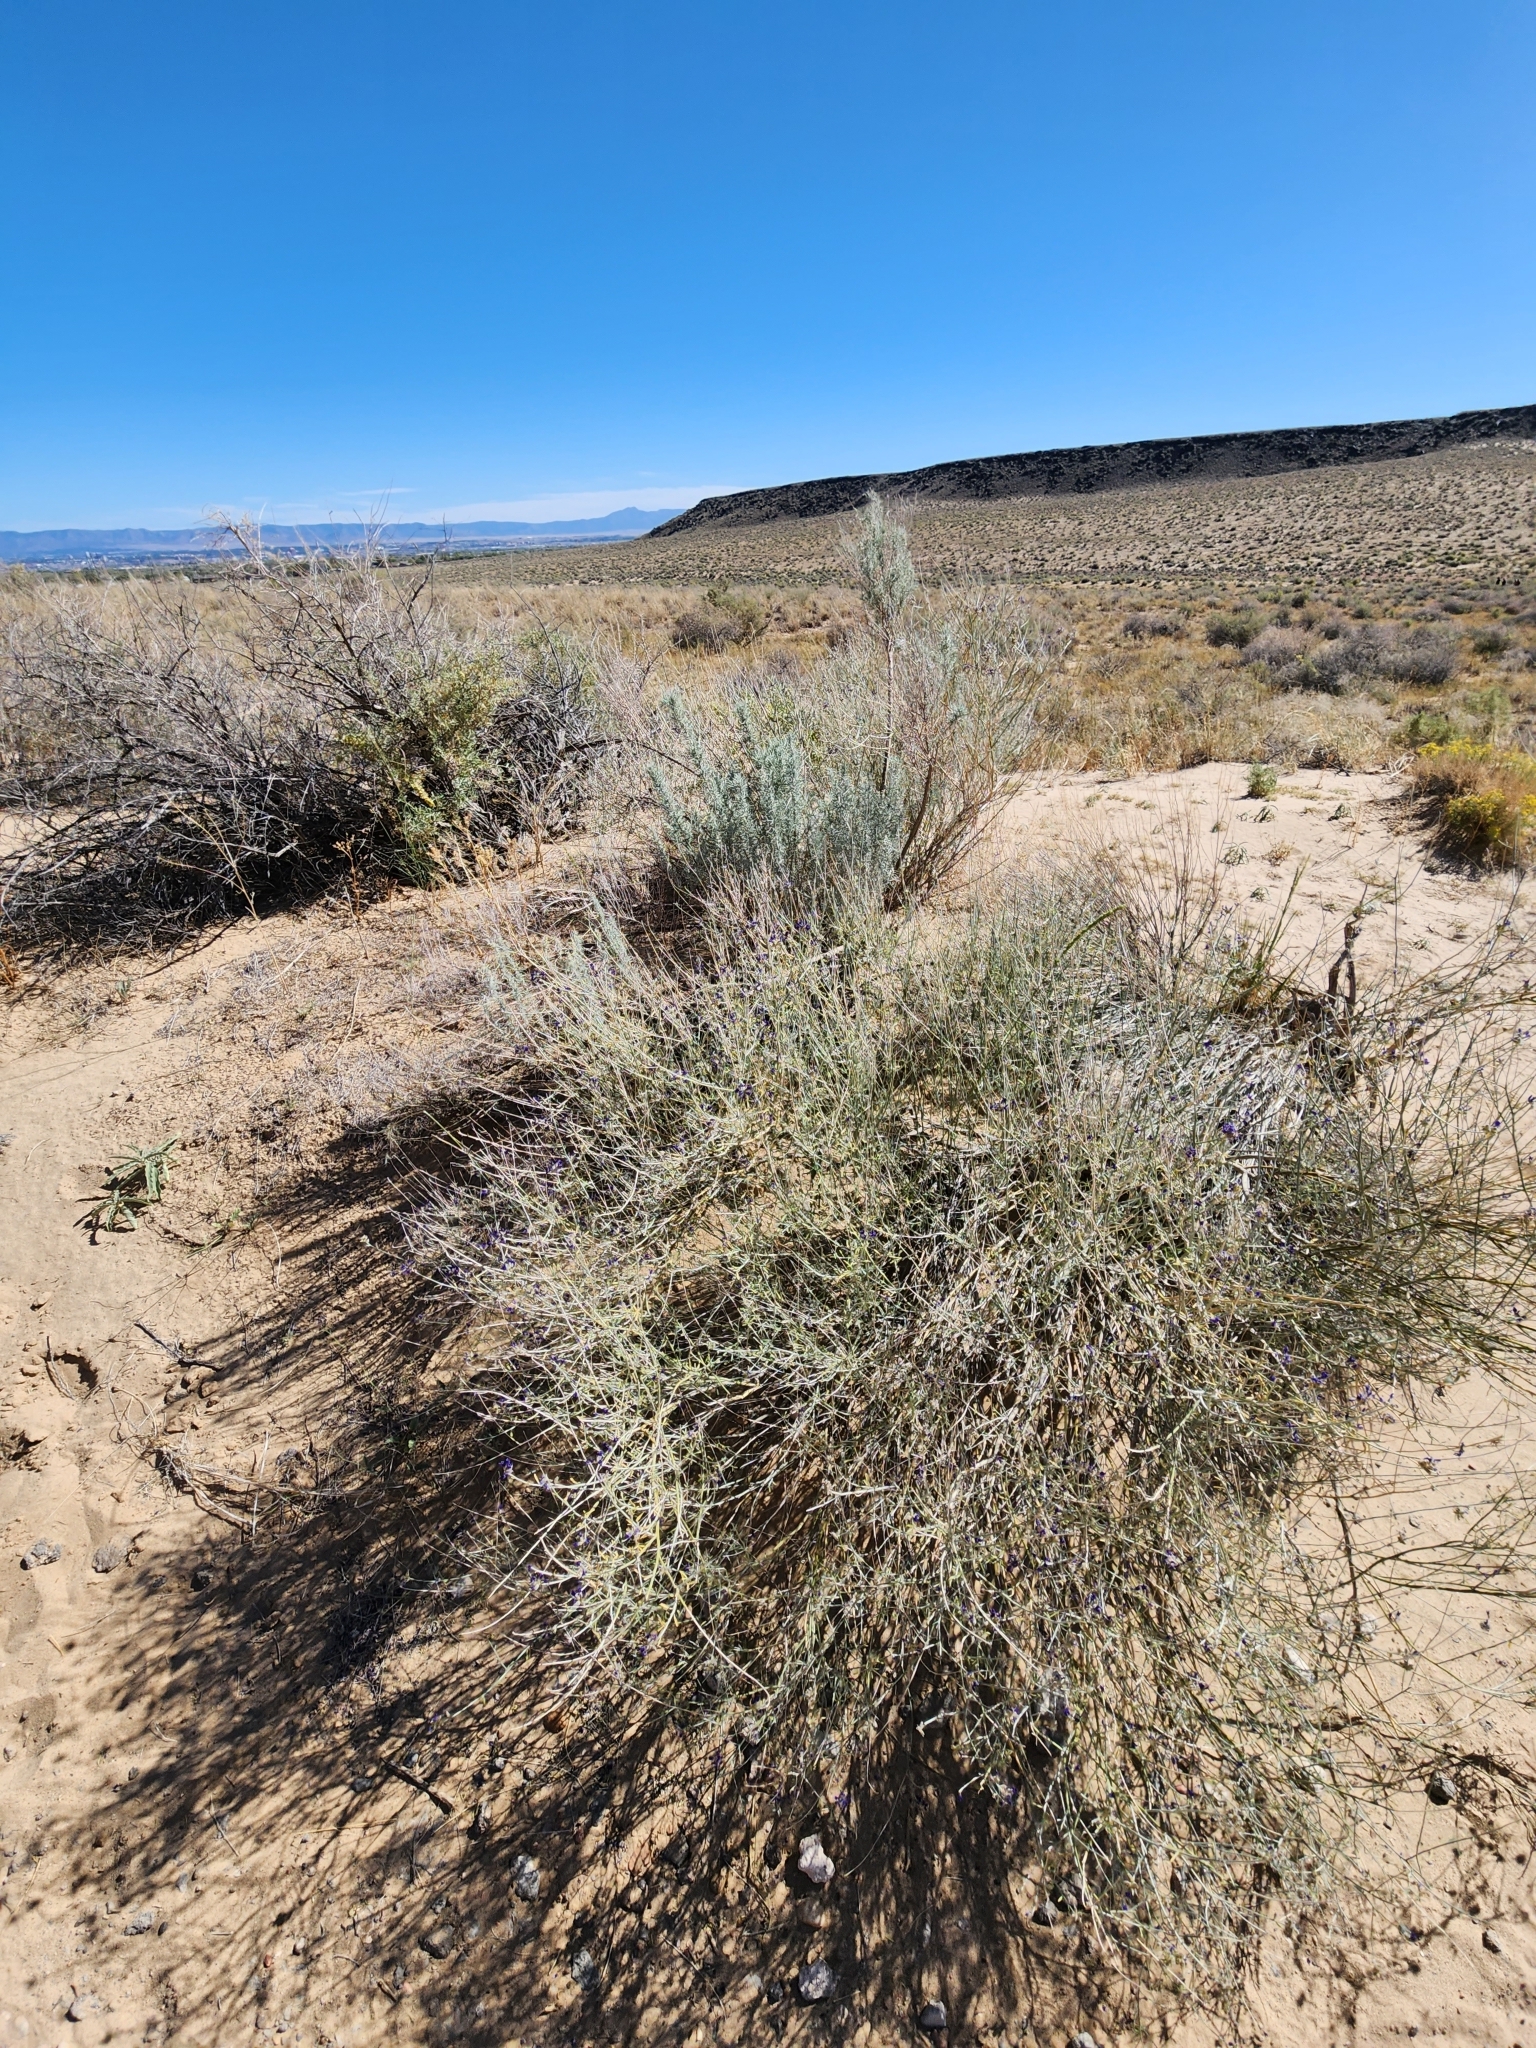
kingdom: Plantae
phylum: Tracheophyta
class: Magnoliopsida
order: Fabales
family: Fabaceae
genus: Psorothamnus
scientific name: Psorothamnus scoparius
